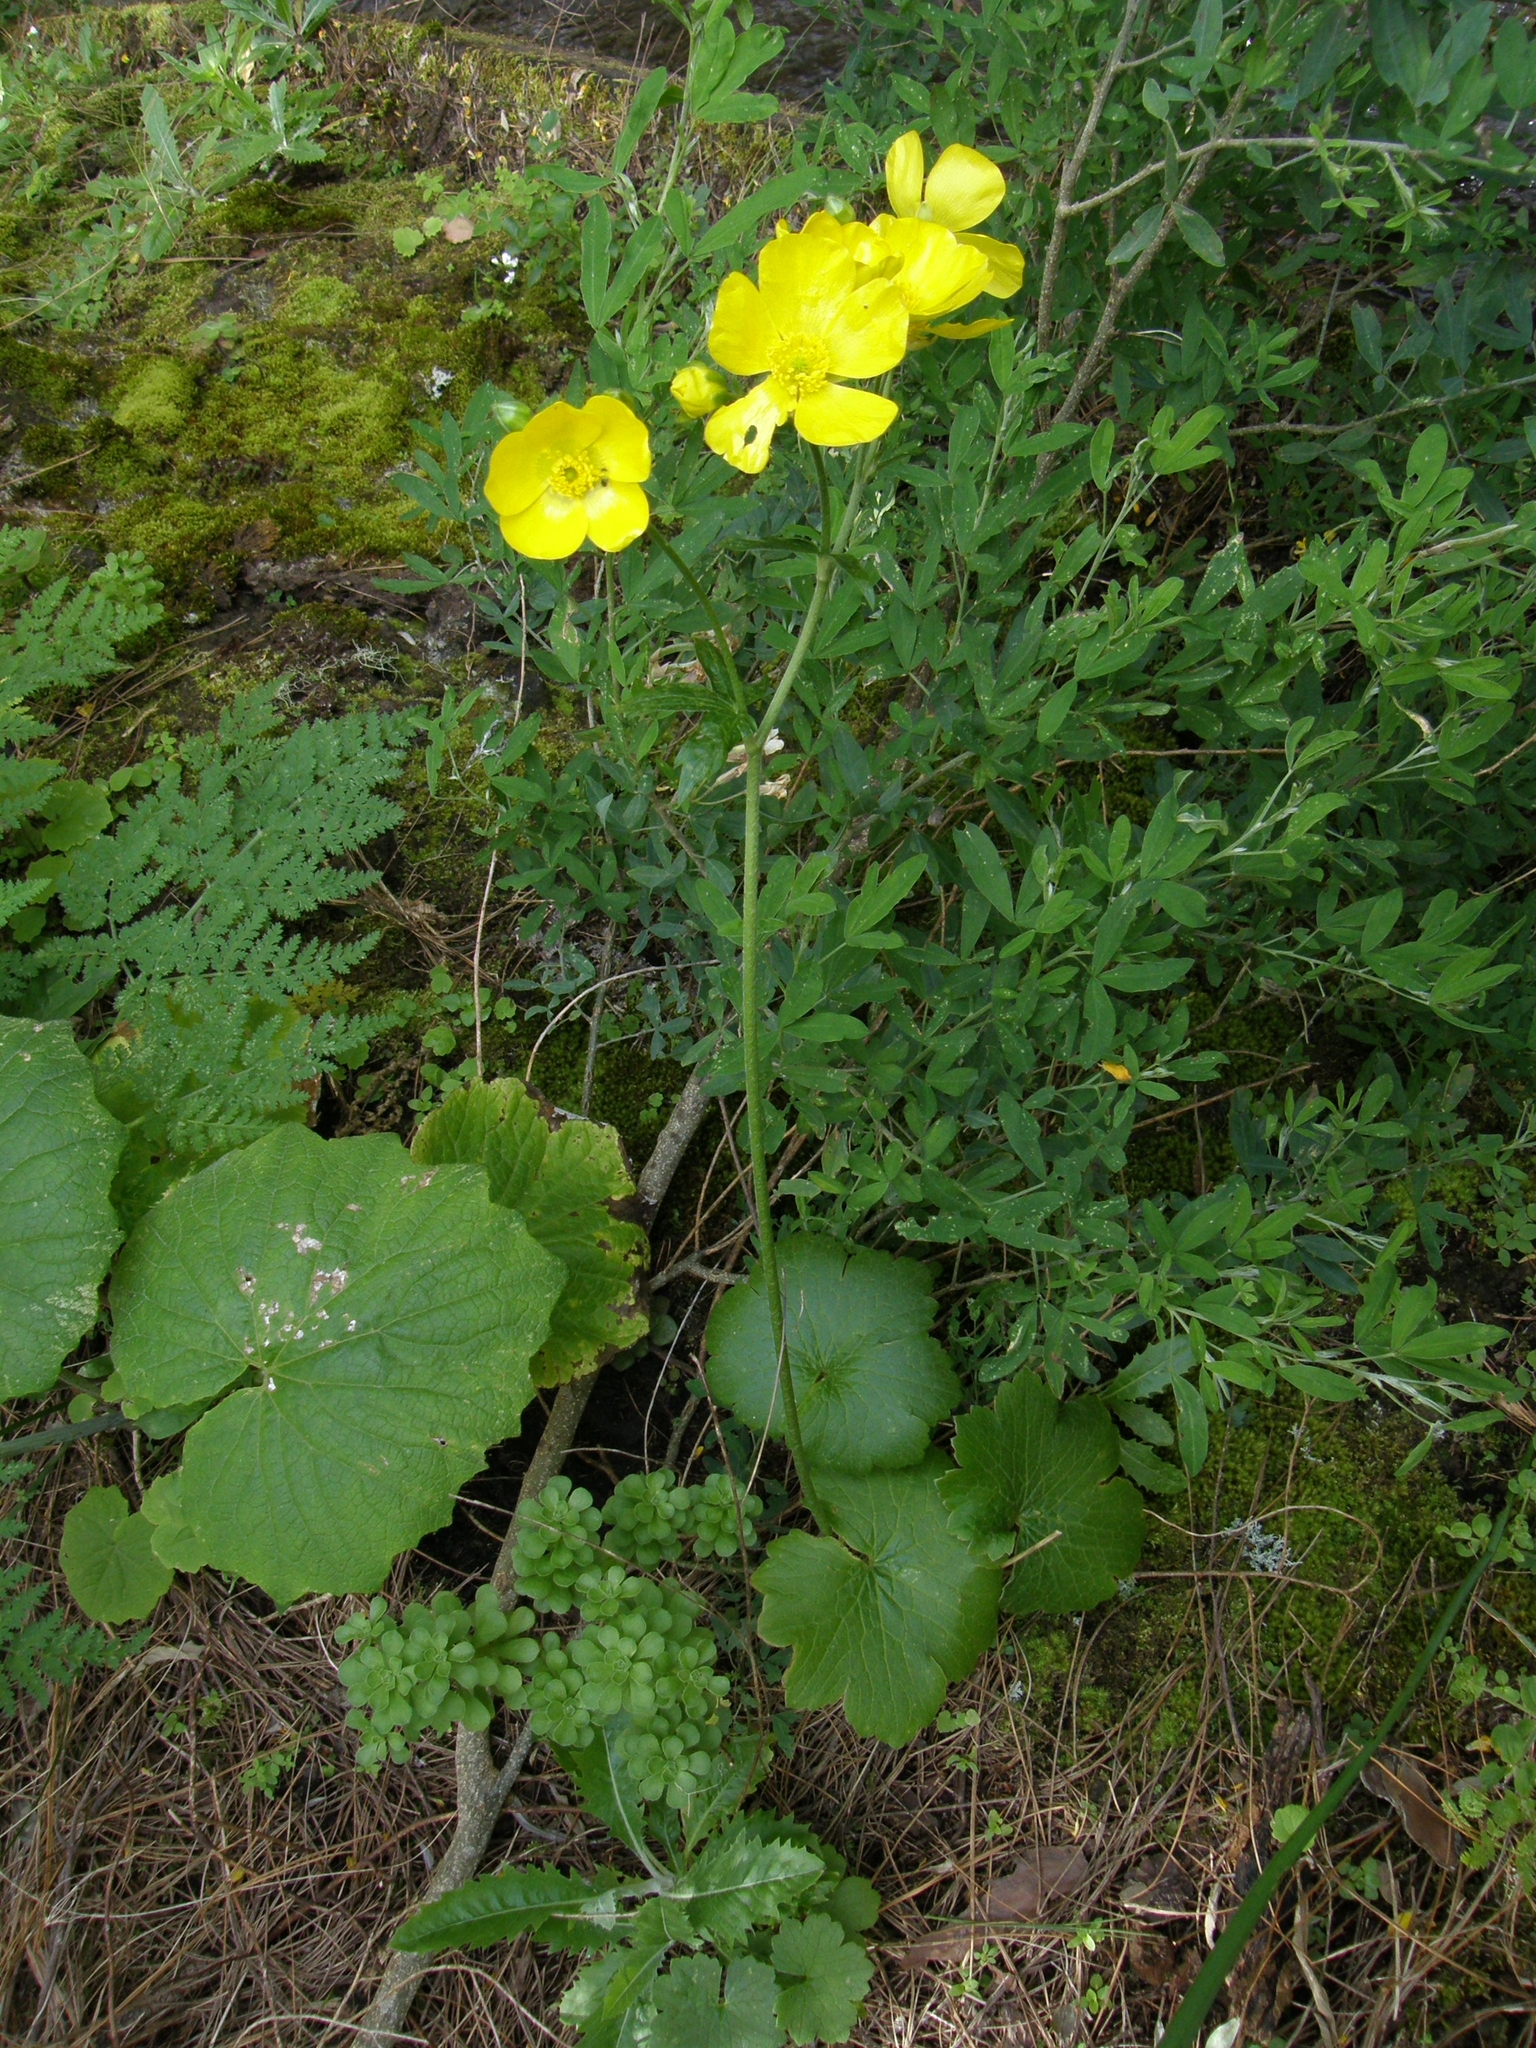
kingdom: Plantae
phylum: Tracheophyta
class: Magnoliopsida
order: Ranunculales
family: Ranunculaceae
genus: Ranunculus
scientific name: Ranunculus cortusifolius
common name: Azores buttercup
